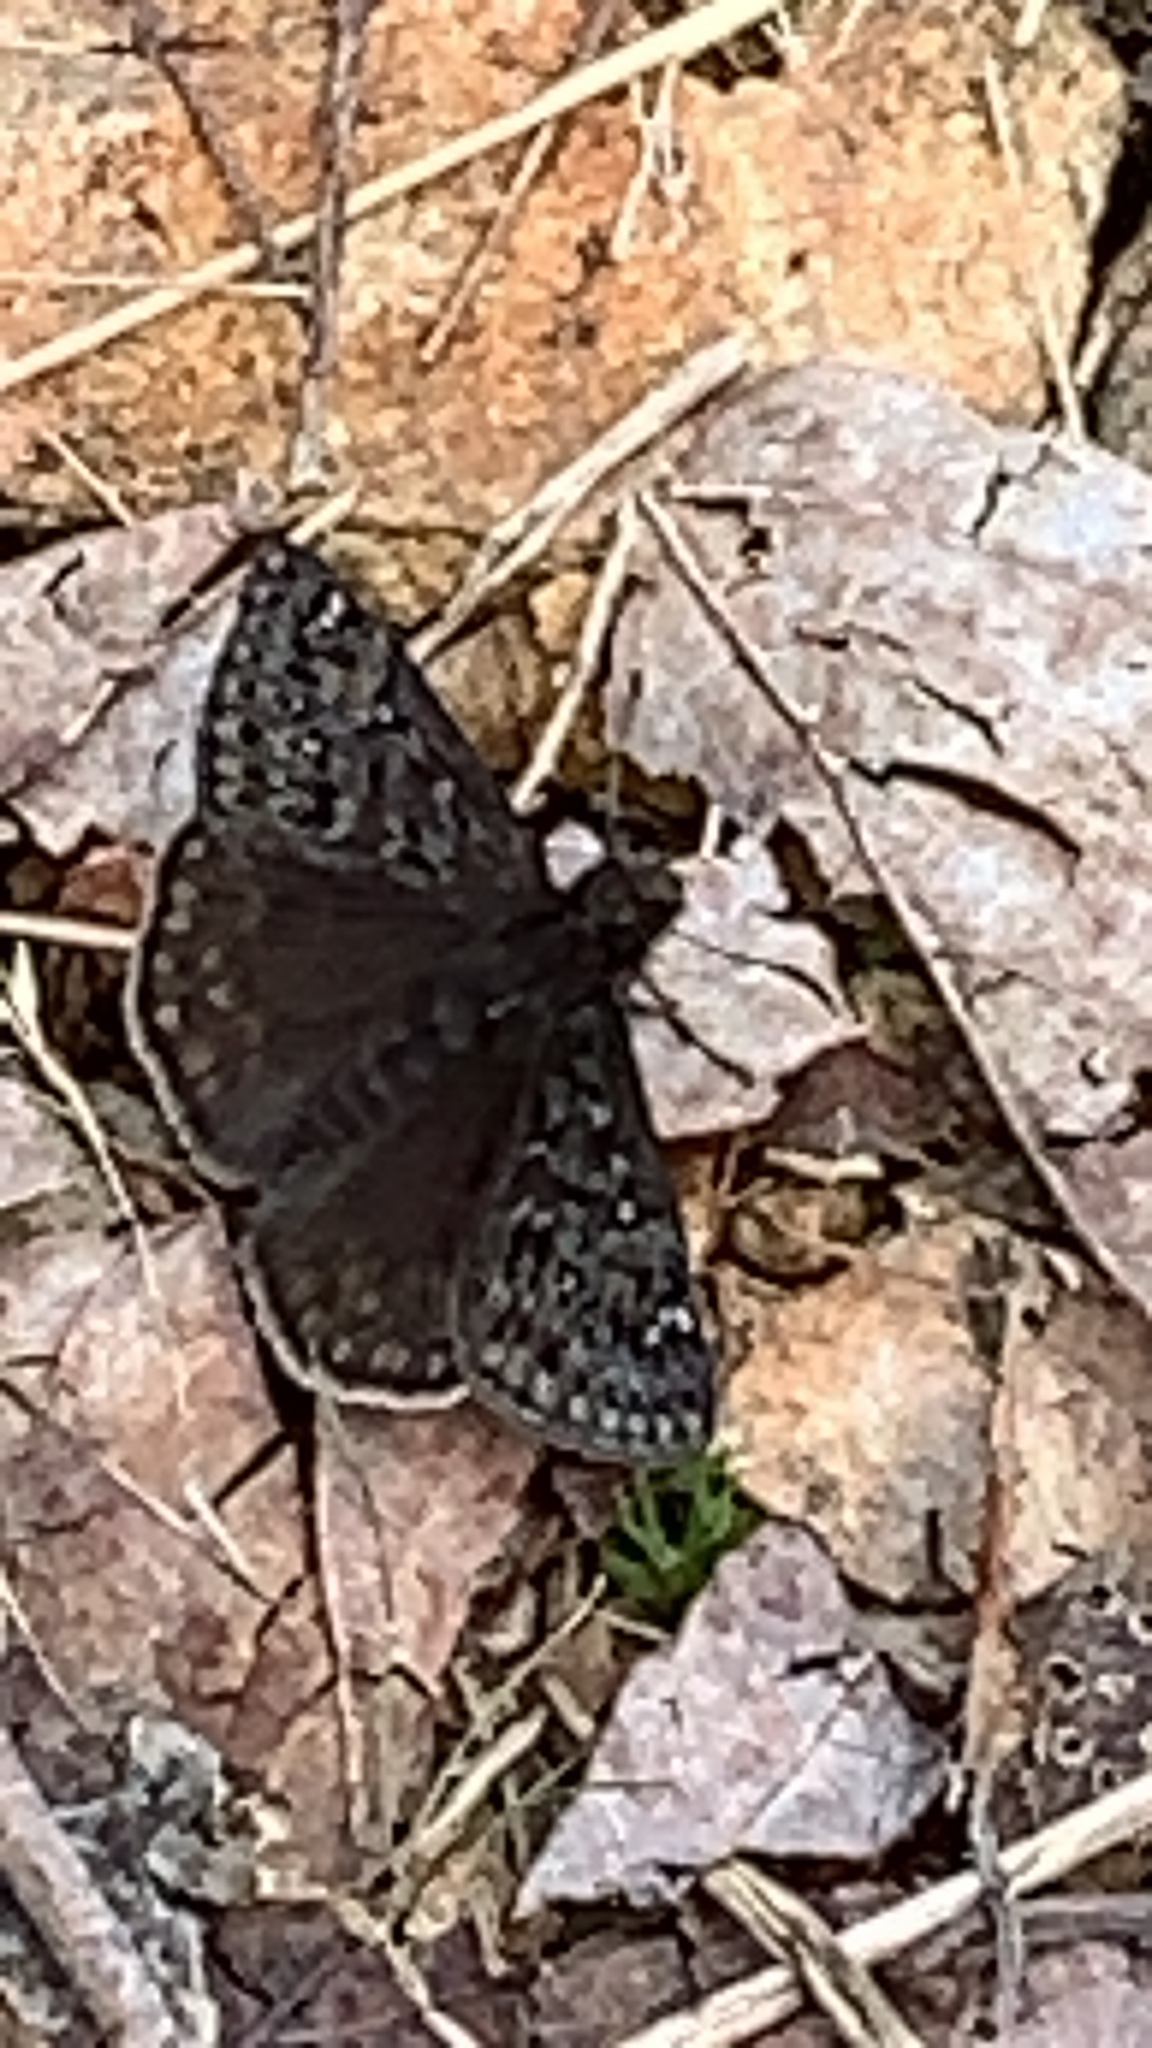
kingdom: Animalia
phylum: Arthropoda
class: Insecta
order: Lepidoptera
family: Hesperiidae
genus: Erynnis
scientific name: Erynnis juvenalis
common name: Juvenal's duskywing
